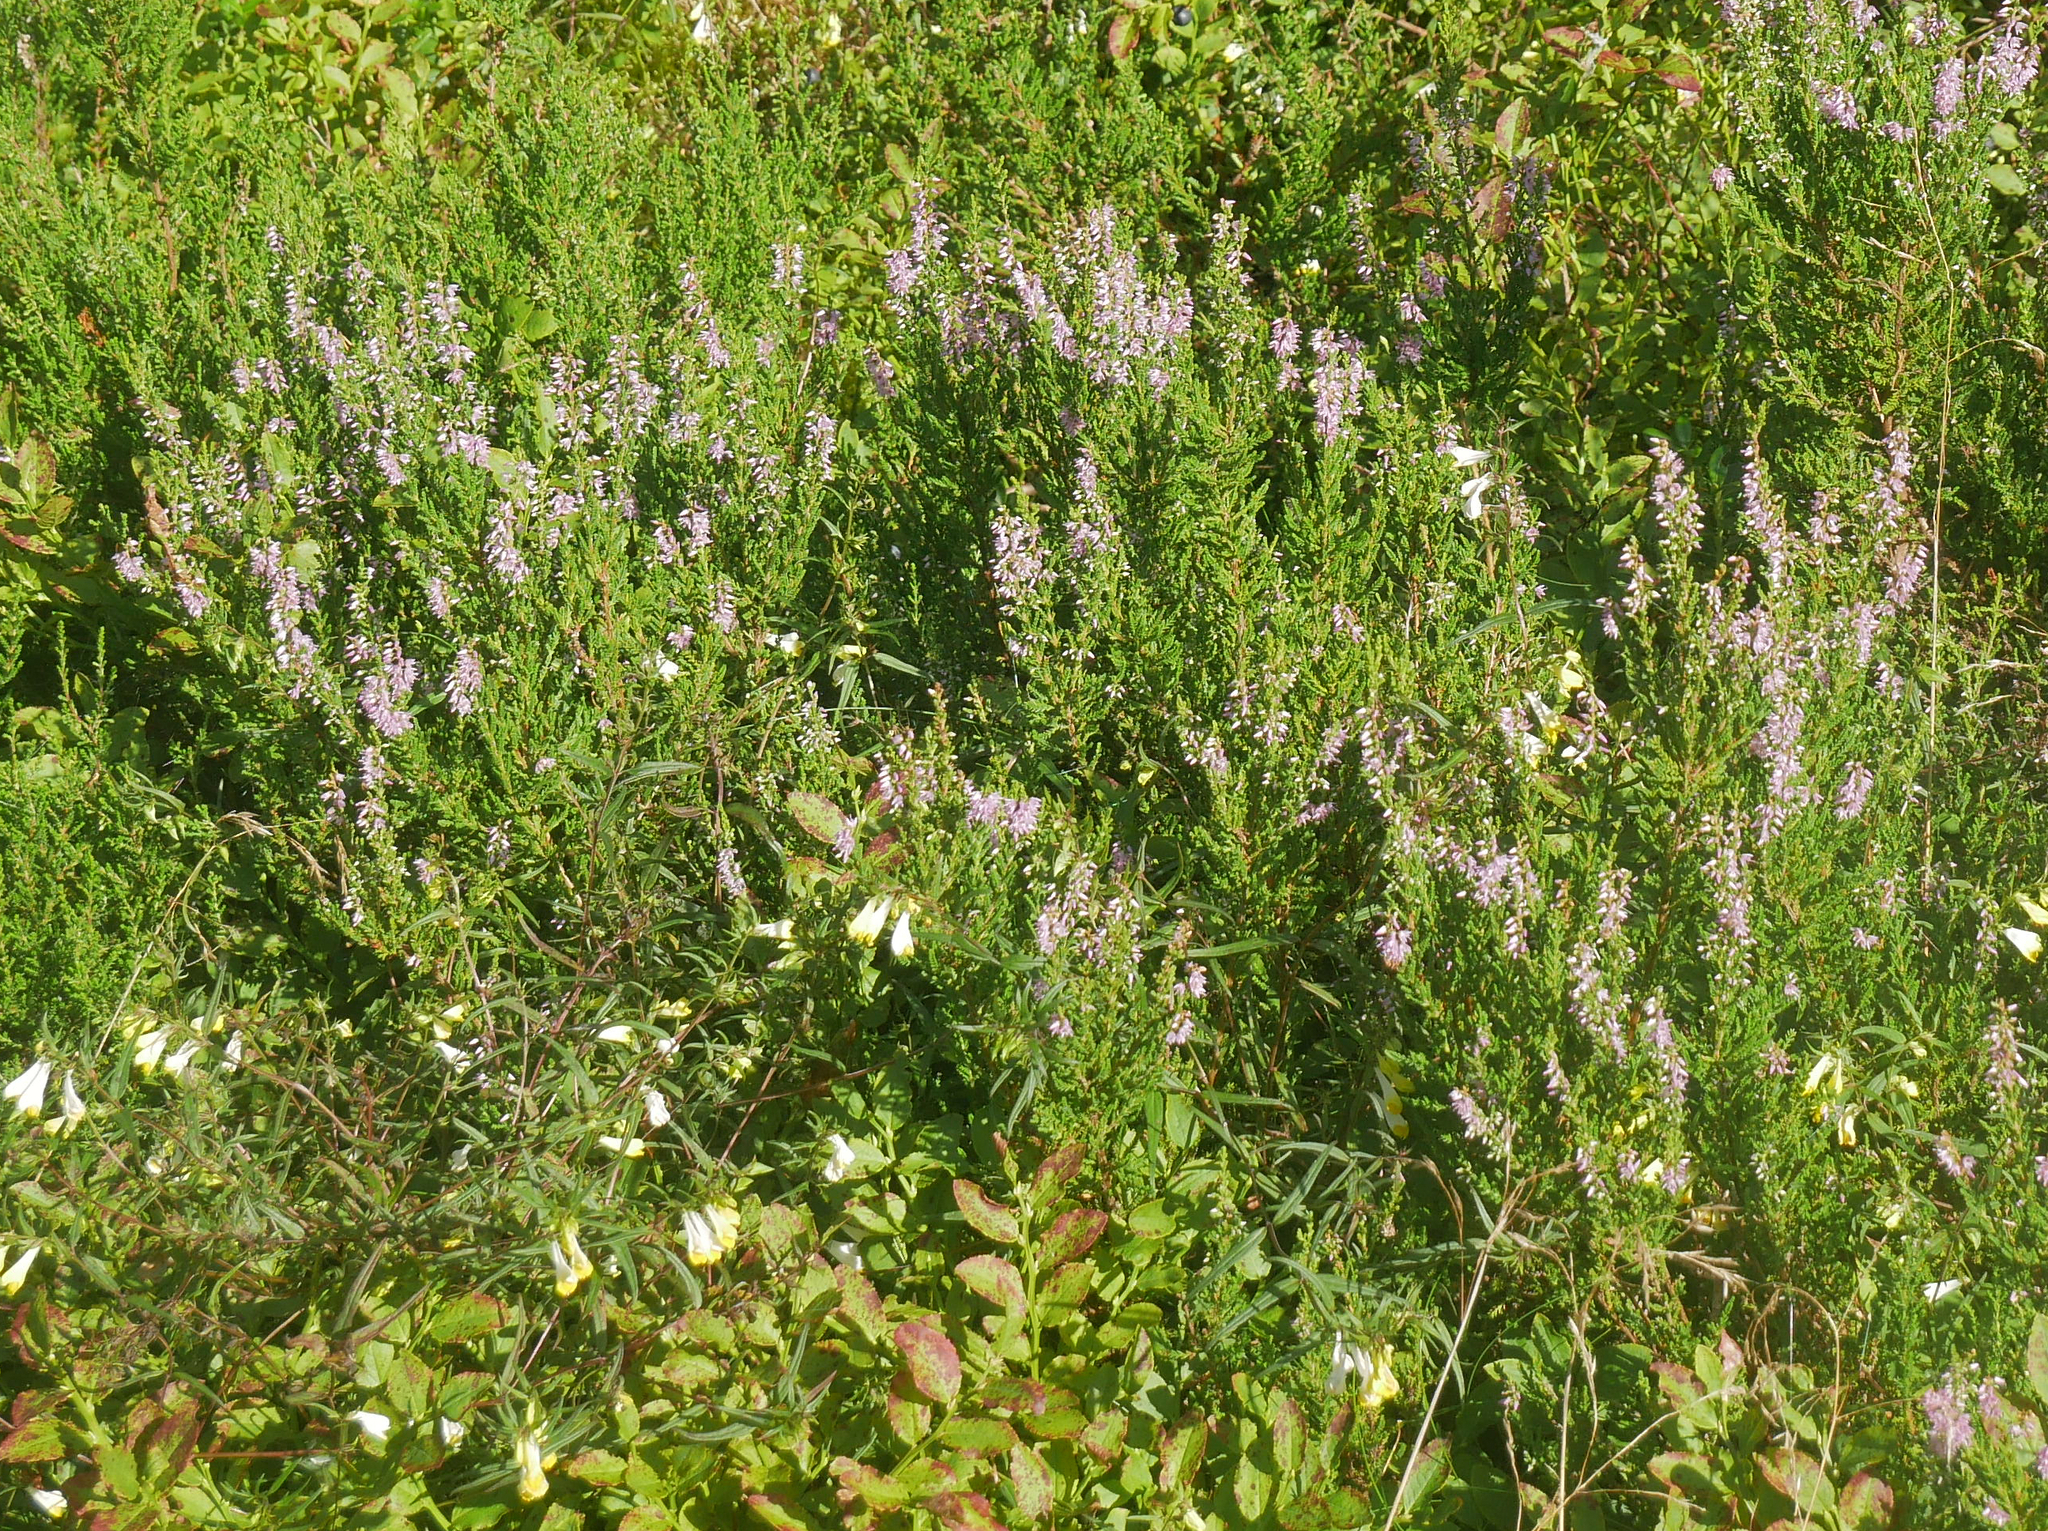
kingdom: Plantae
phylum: Tracheophyta
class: Magnoliopsida
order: Ericales
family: Ericaceae
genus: Calluna
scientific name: Calluna vulgaris
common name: Heather
